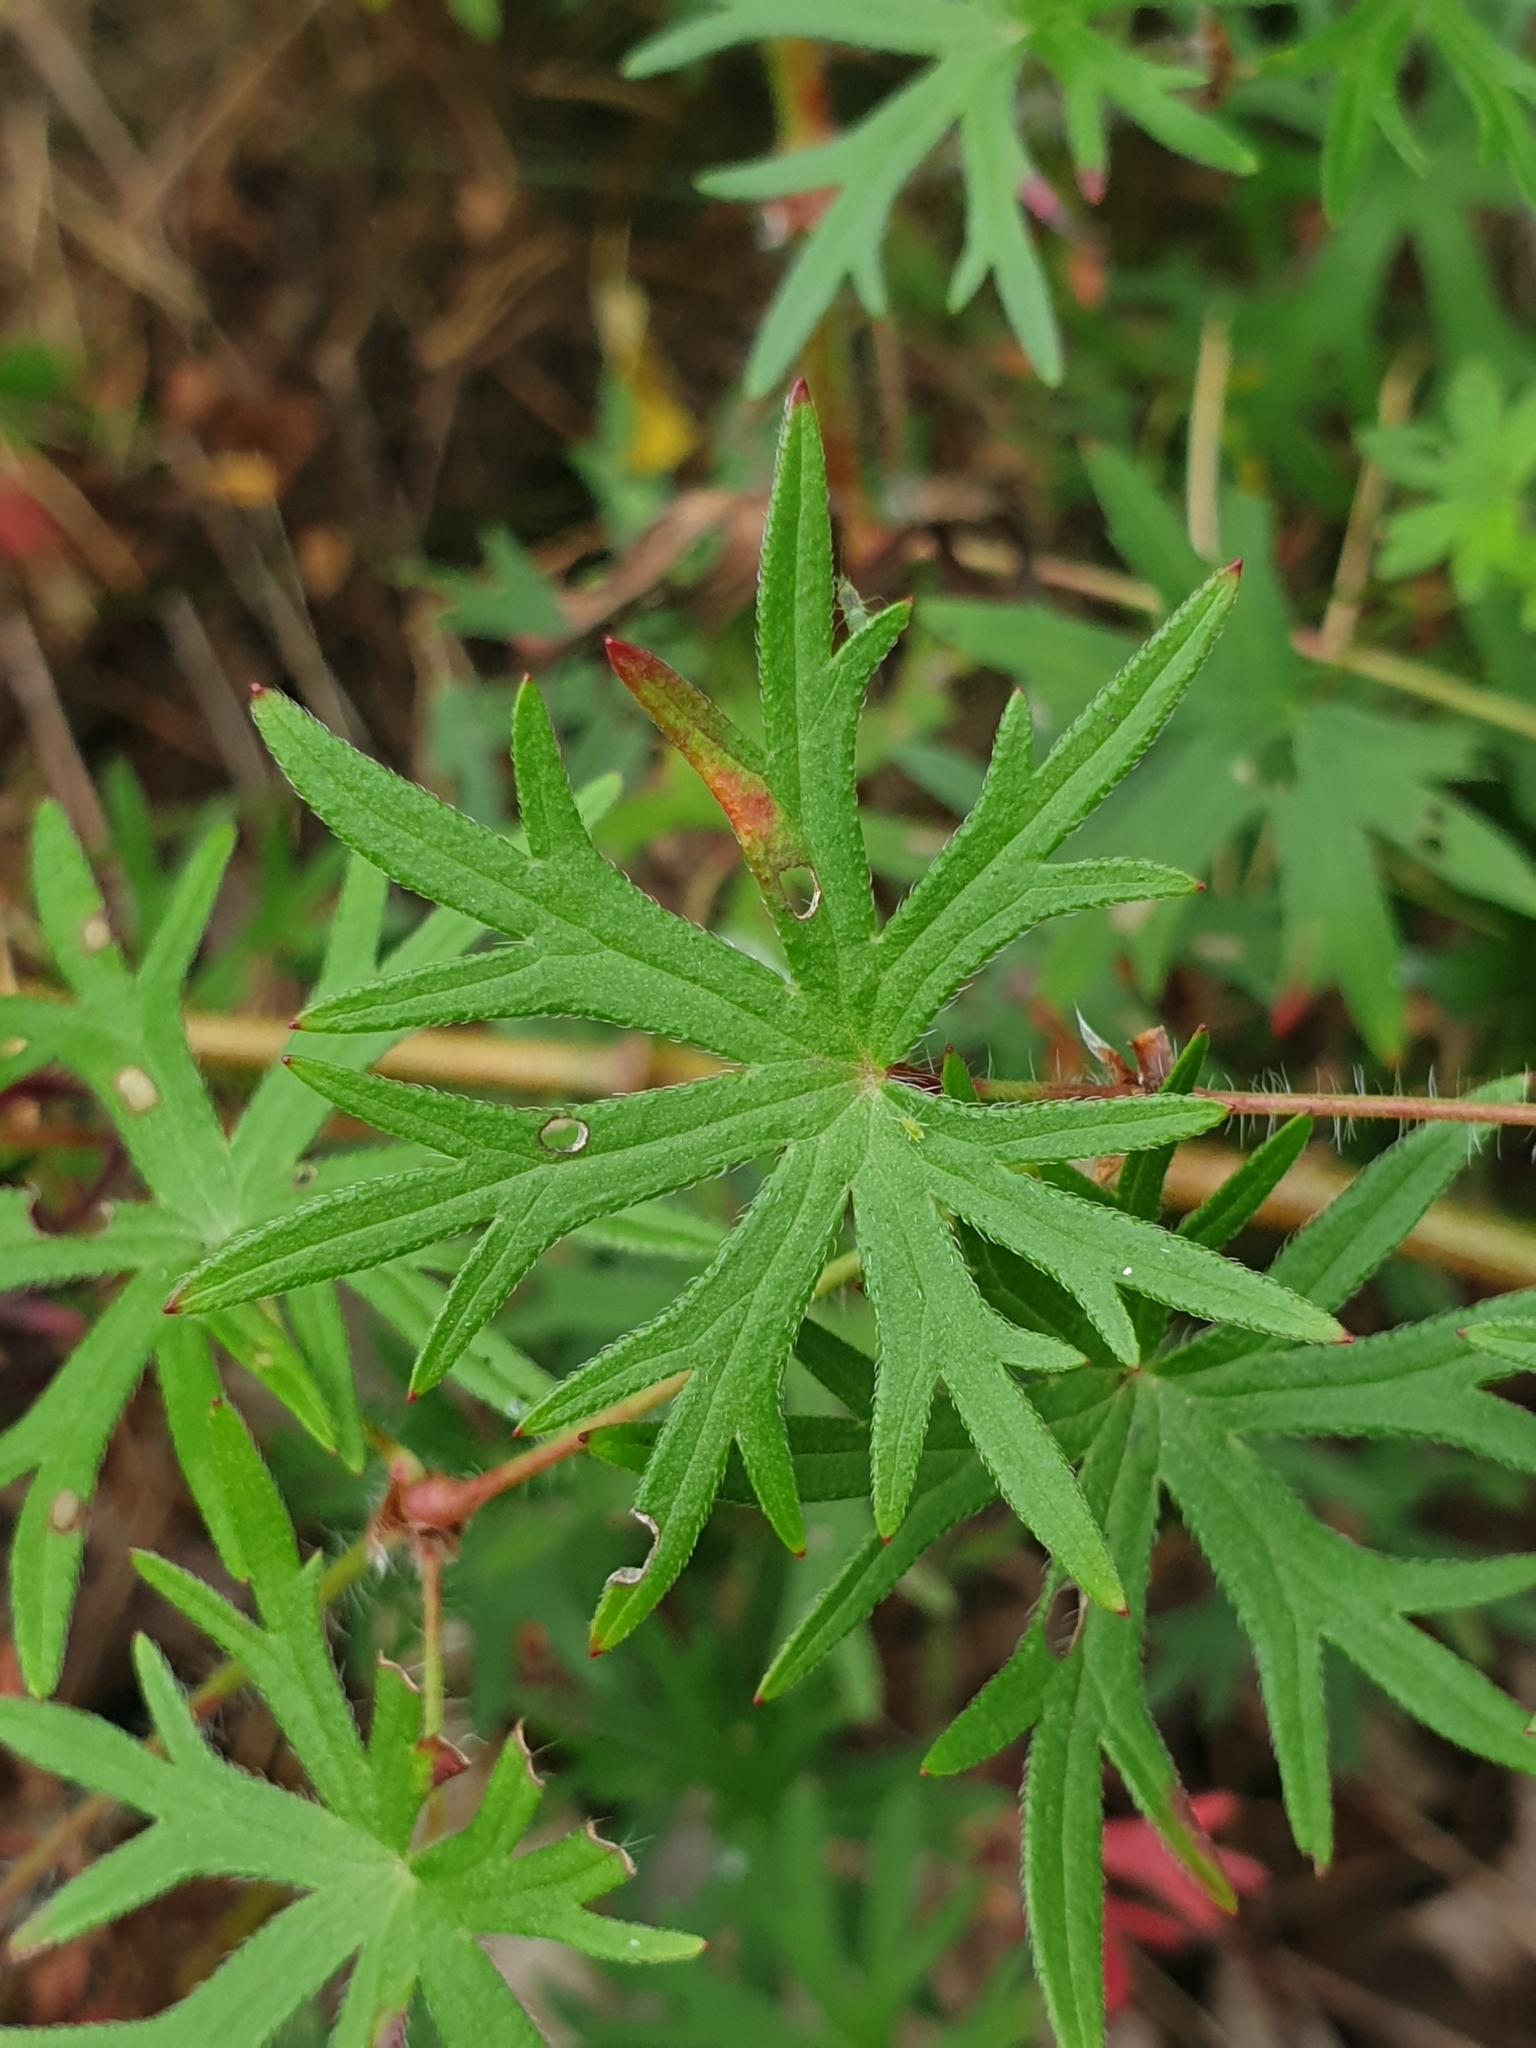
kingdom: Plantae
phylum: Tracheophyta
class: Magnoliopsida
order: Geraniales
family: Geraniaceae
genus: Geranium
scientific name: Geranium sanguineum
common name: Bloody crane's-bill
